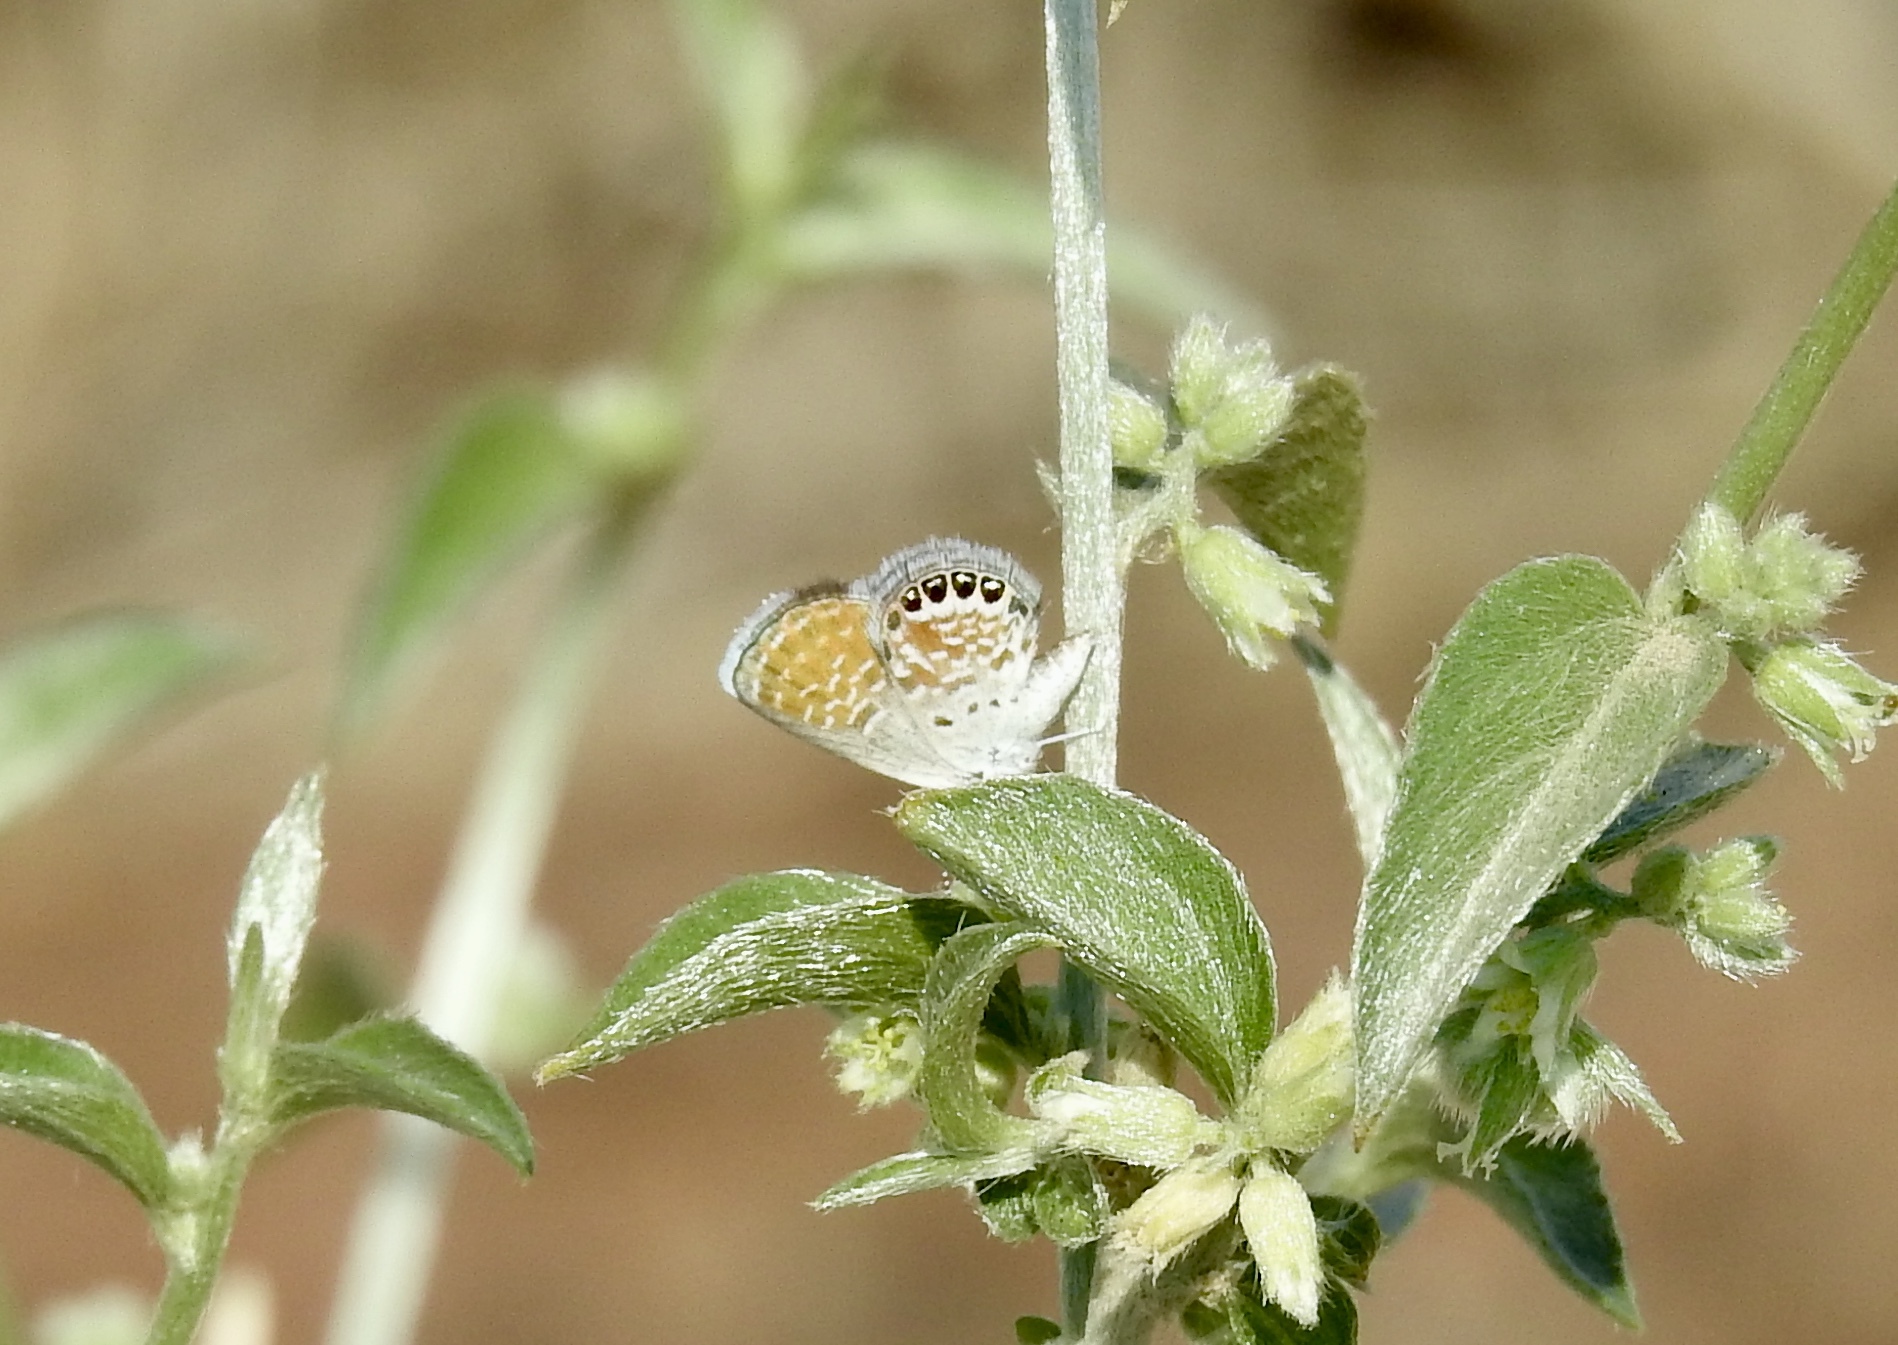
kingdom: Animalia
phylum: Arthropoda
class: Insecta
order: Lepidoptera
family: Lycaenidae
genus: Brephidium
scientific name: Brephidium exilis
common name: Pygmy blue
